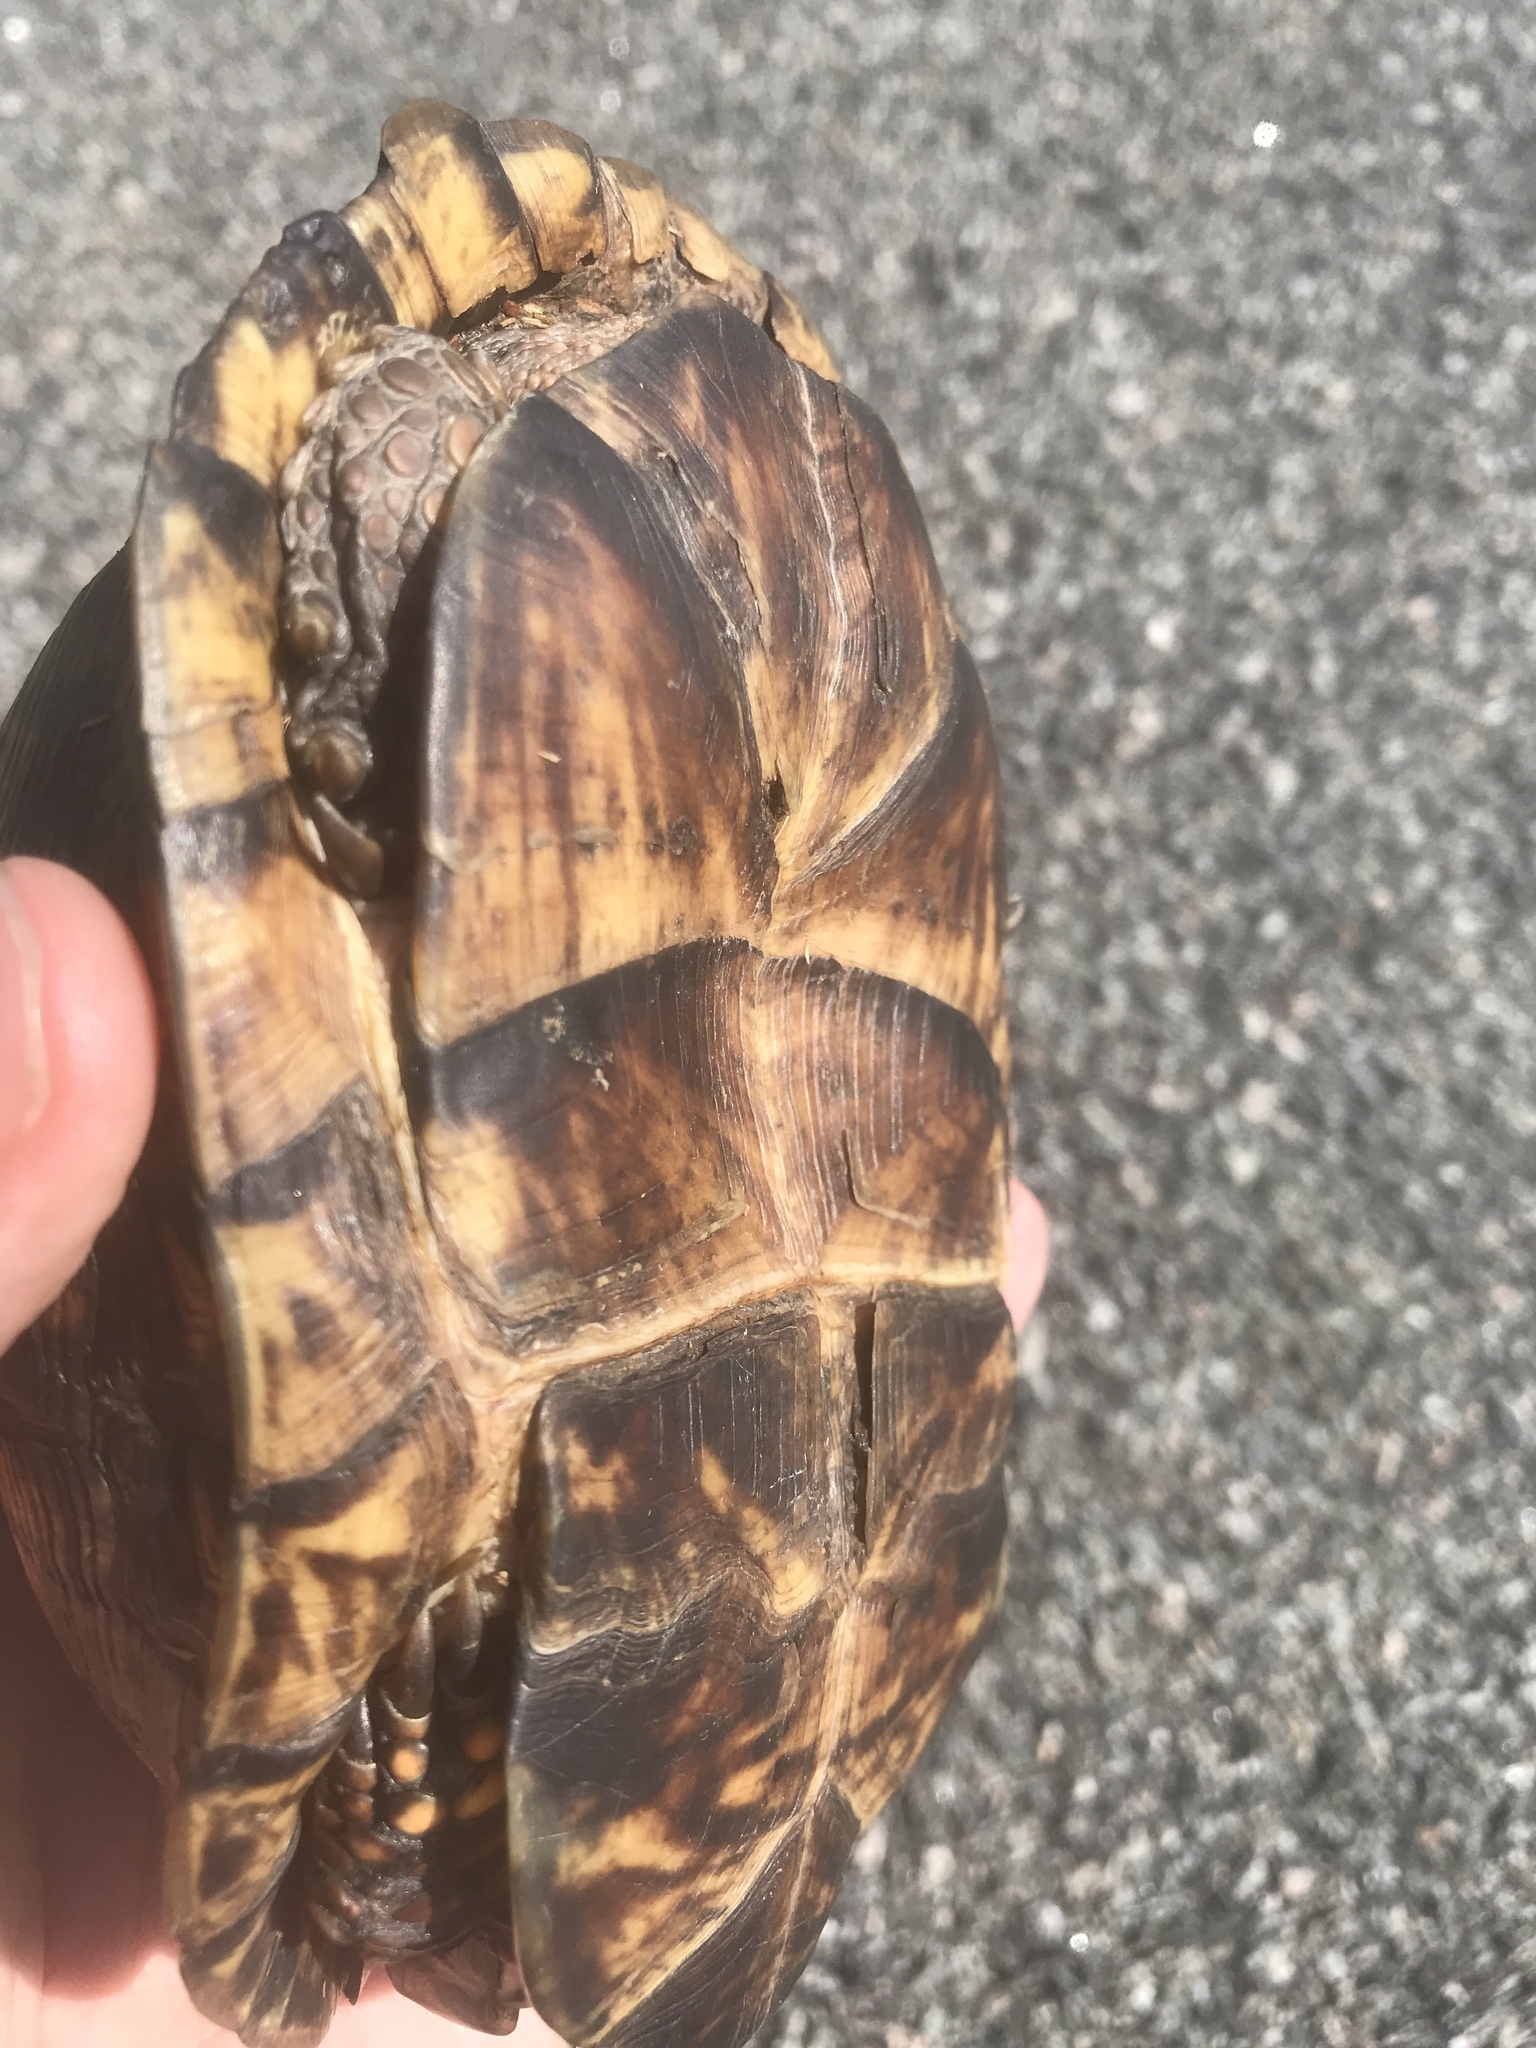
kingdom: Animalia
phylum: Chordata
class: Testudines
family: Emydidae
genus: Terrapene
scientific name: Terrapene carolina
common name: Common box turtle
